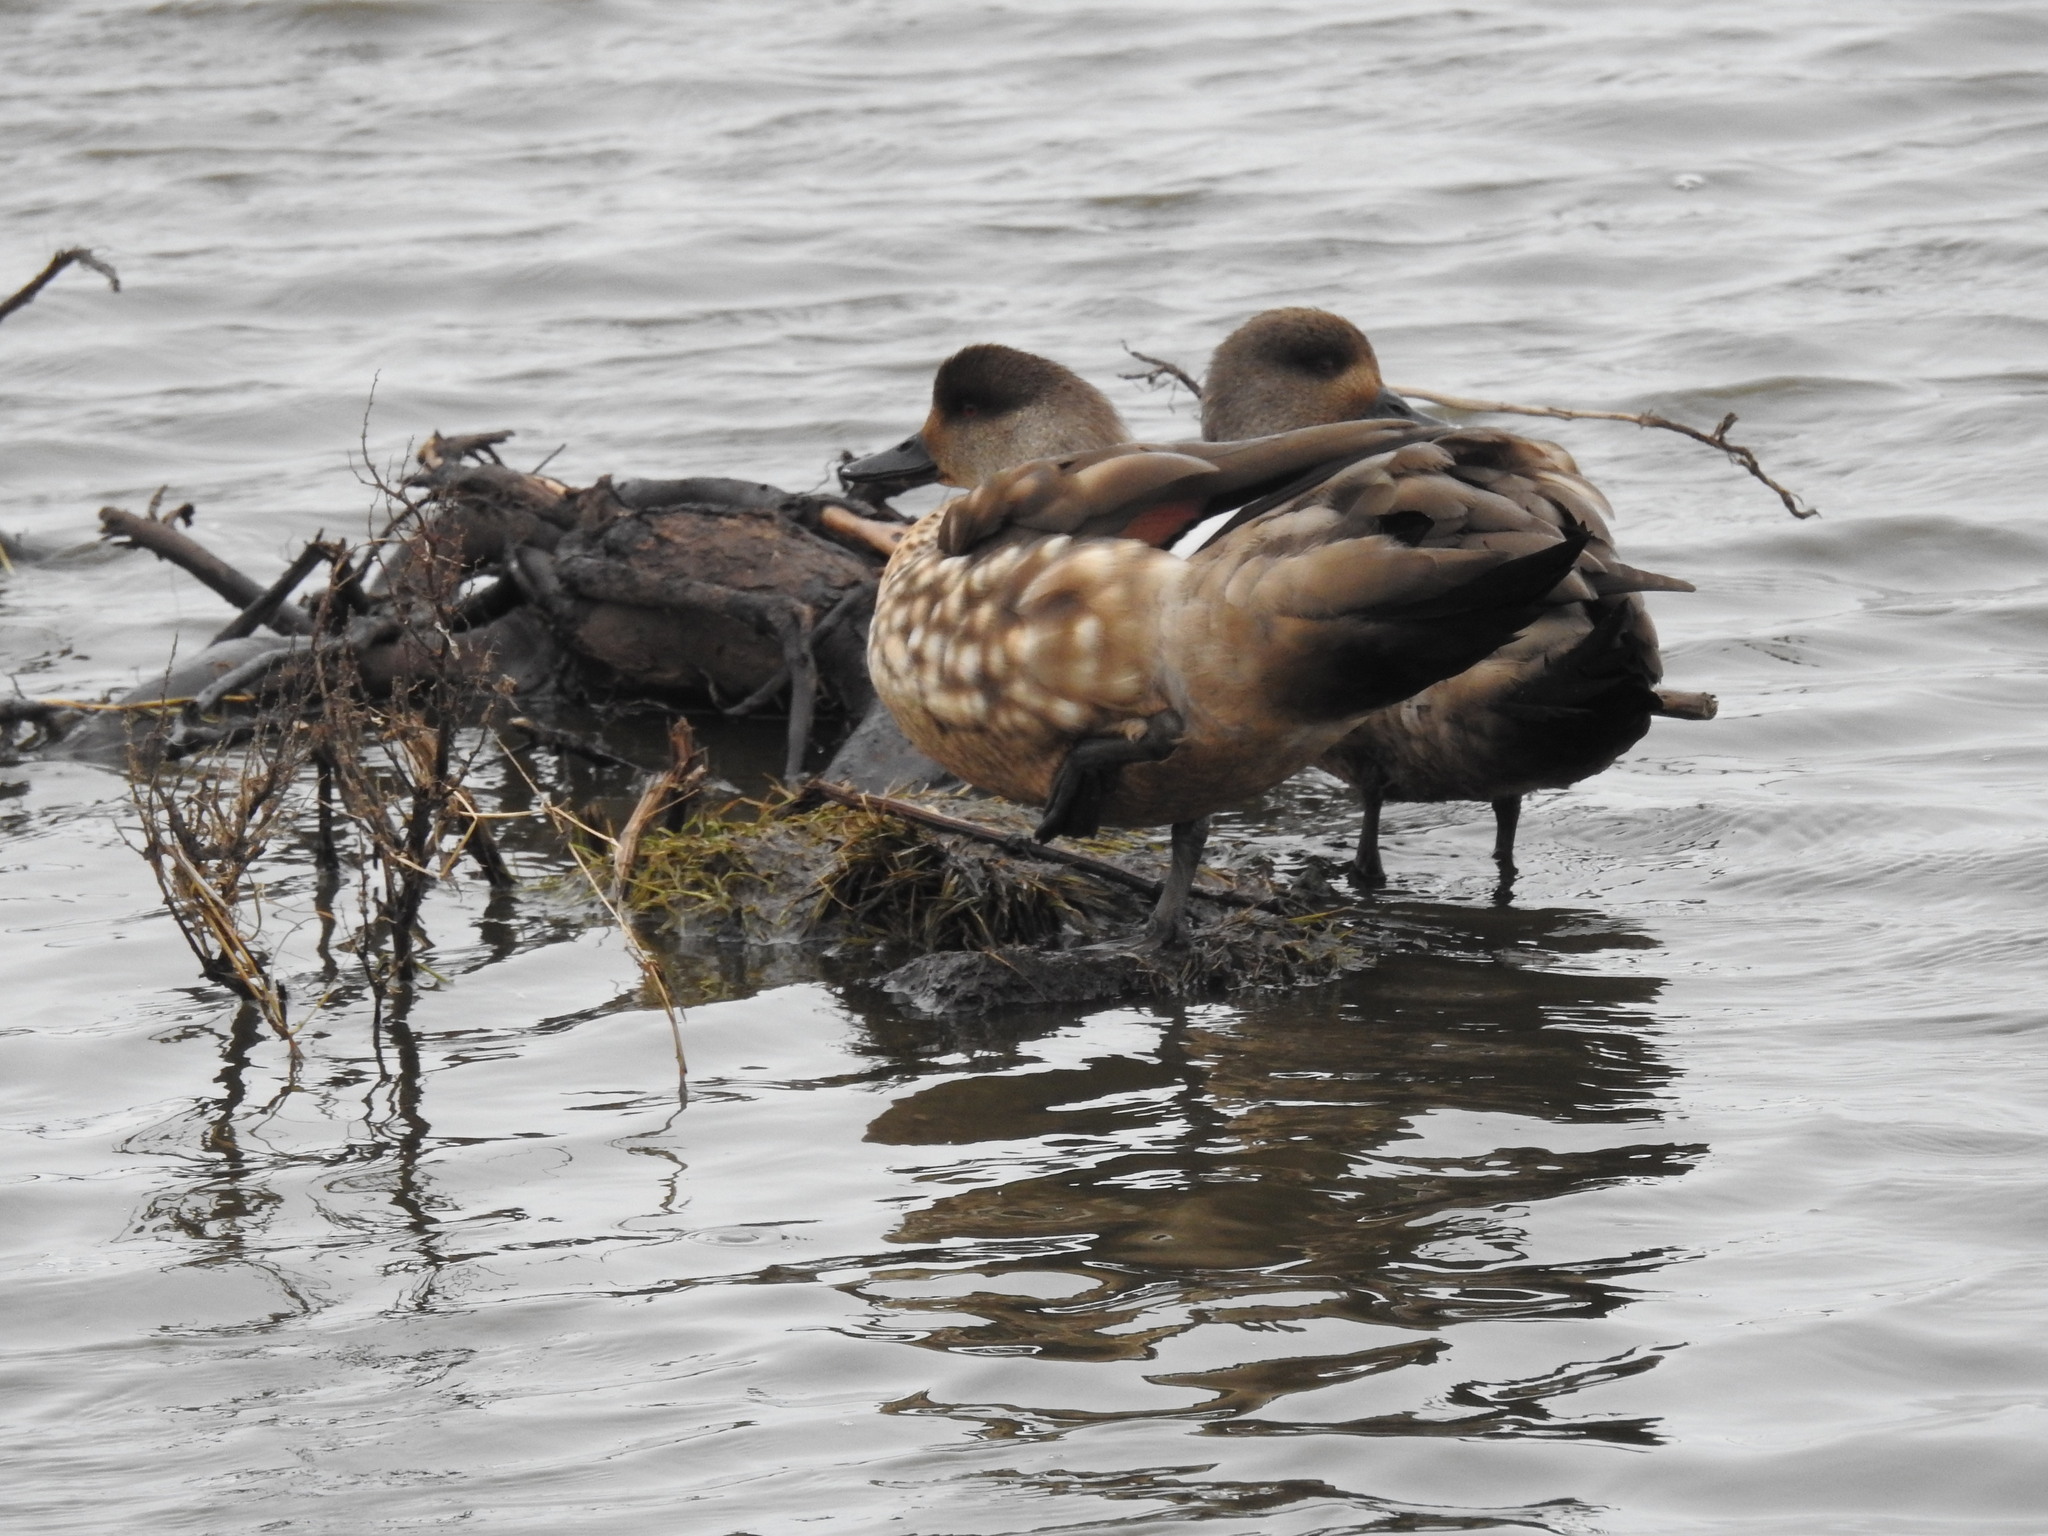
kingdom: Animalia
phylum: Chordata
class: Aves
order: Anseriformes
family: Anatidae
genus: Lophonetta
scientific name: Lophonetta specularioides
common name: Crested duck
